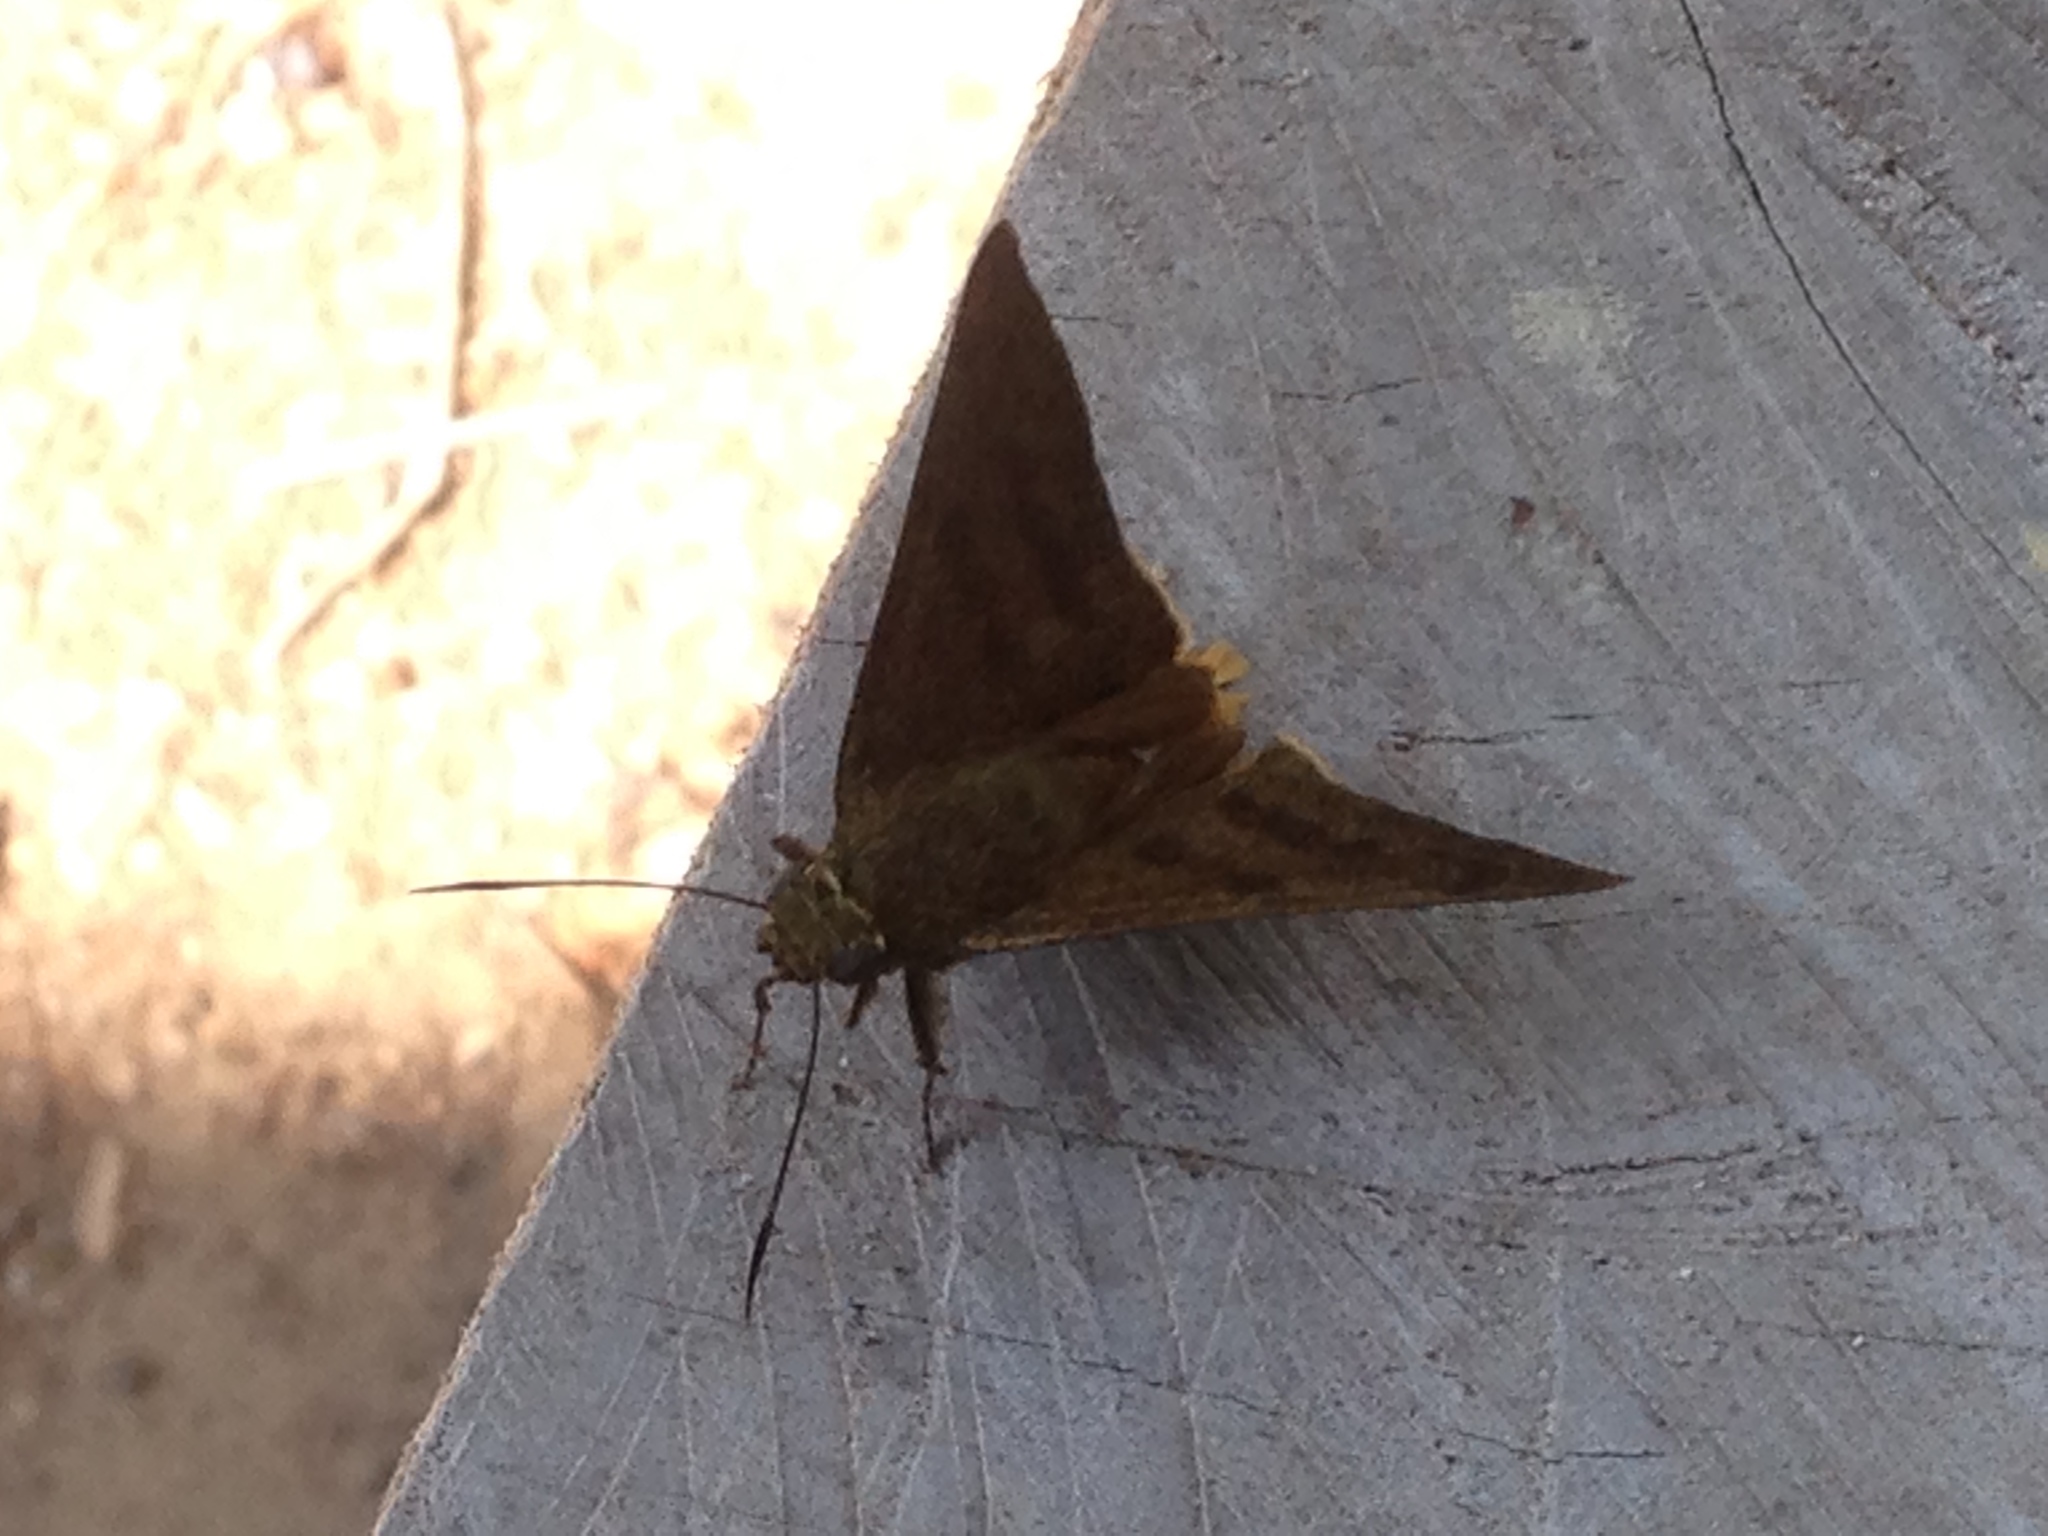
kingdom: Animalia
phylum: Arthropoda
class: Insecta
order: Lepidoptera
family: Hesperiidae
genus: Astraptes
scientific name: Astraptes anaphus
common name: Yellow-tipped flasher
